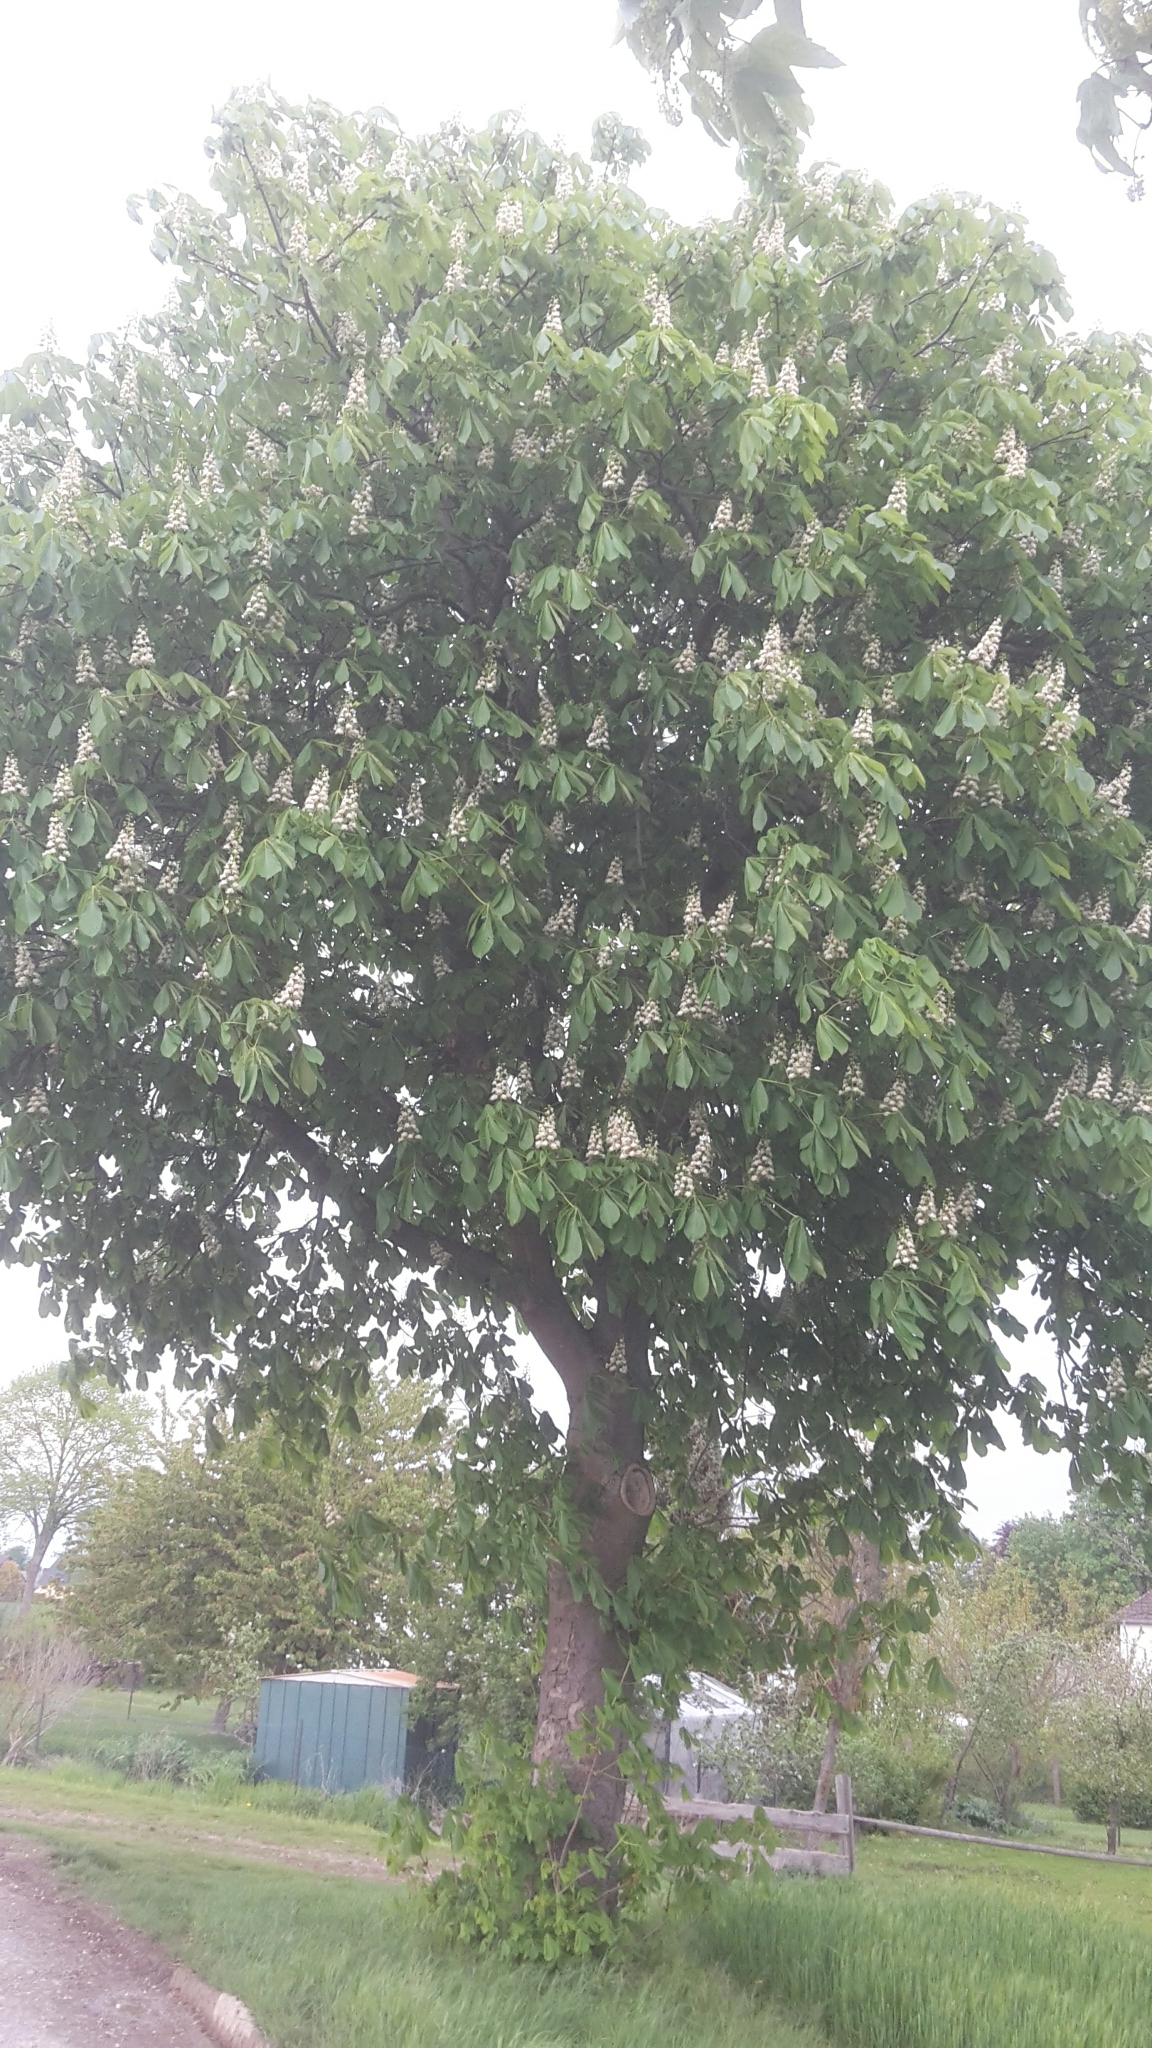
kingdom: Plantae
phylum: Tracheophyta
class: Magnoliopsida
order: Sapindales
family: Sapindaceae
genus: Aesculus
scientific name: Aesculus hippocastanum
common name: Horse-chestnut
